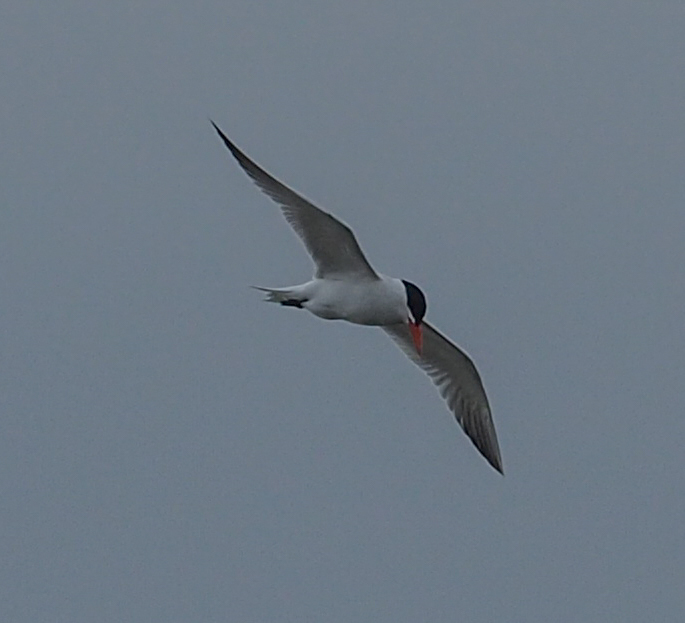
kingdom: Animalia
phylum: Chordata
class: Aves
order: Charadriiformes
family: Laridae
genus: Hydroprogne
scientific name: Hydroprogne caspia
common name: Caspian tern
